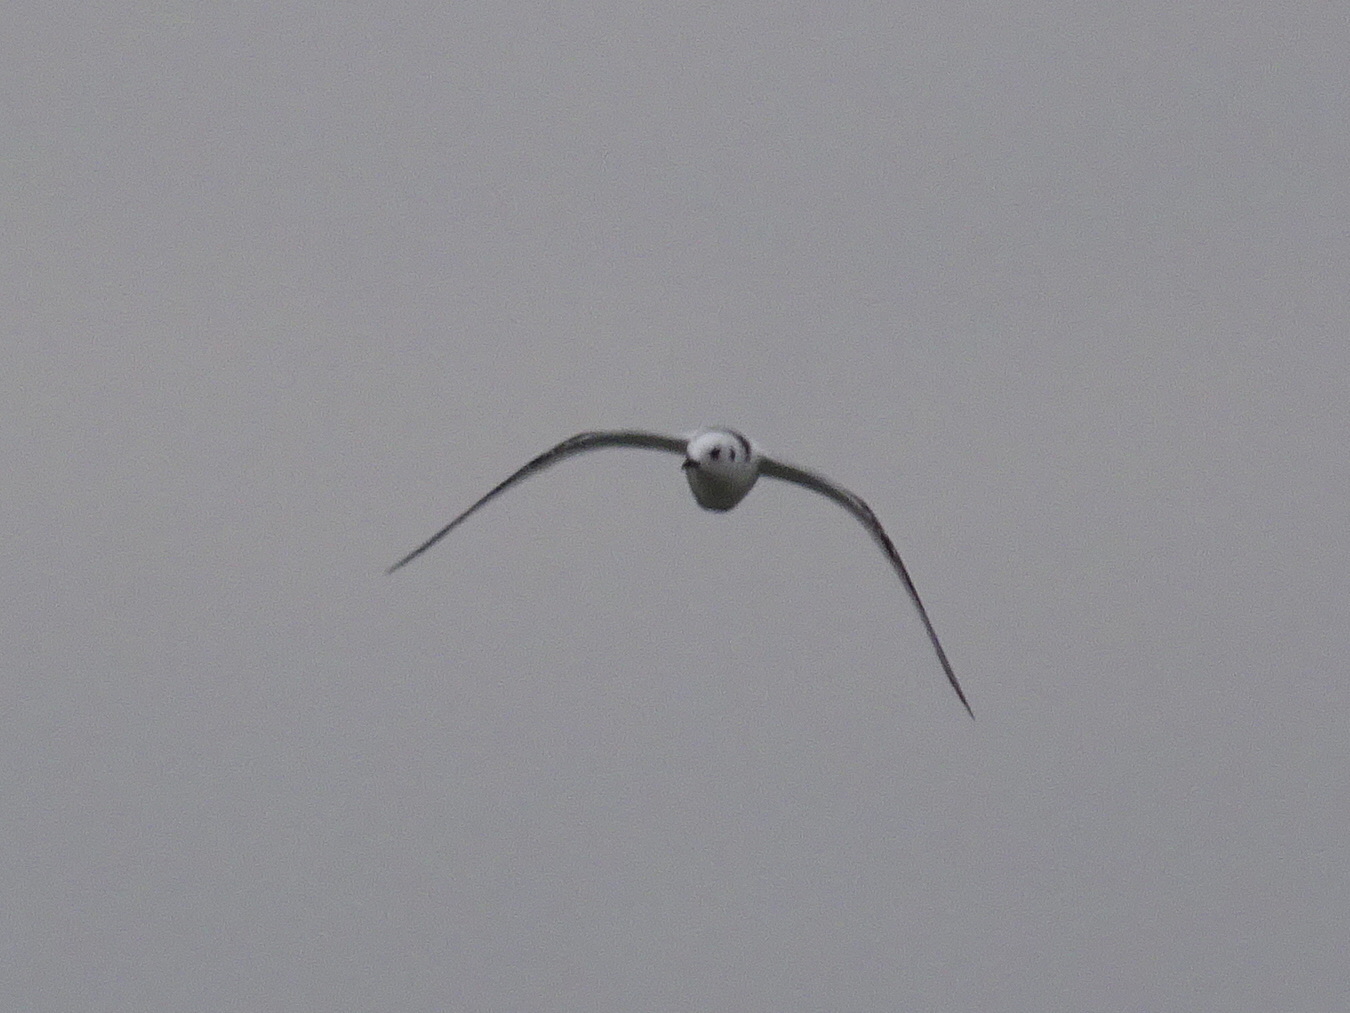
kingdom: Animalia
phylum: Chordata
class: Aves
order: Charadriiformes
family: Laridae
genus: Rissa
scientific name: Rissa tridactyla
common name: Black-legged kittiwake
